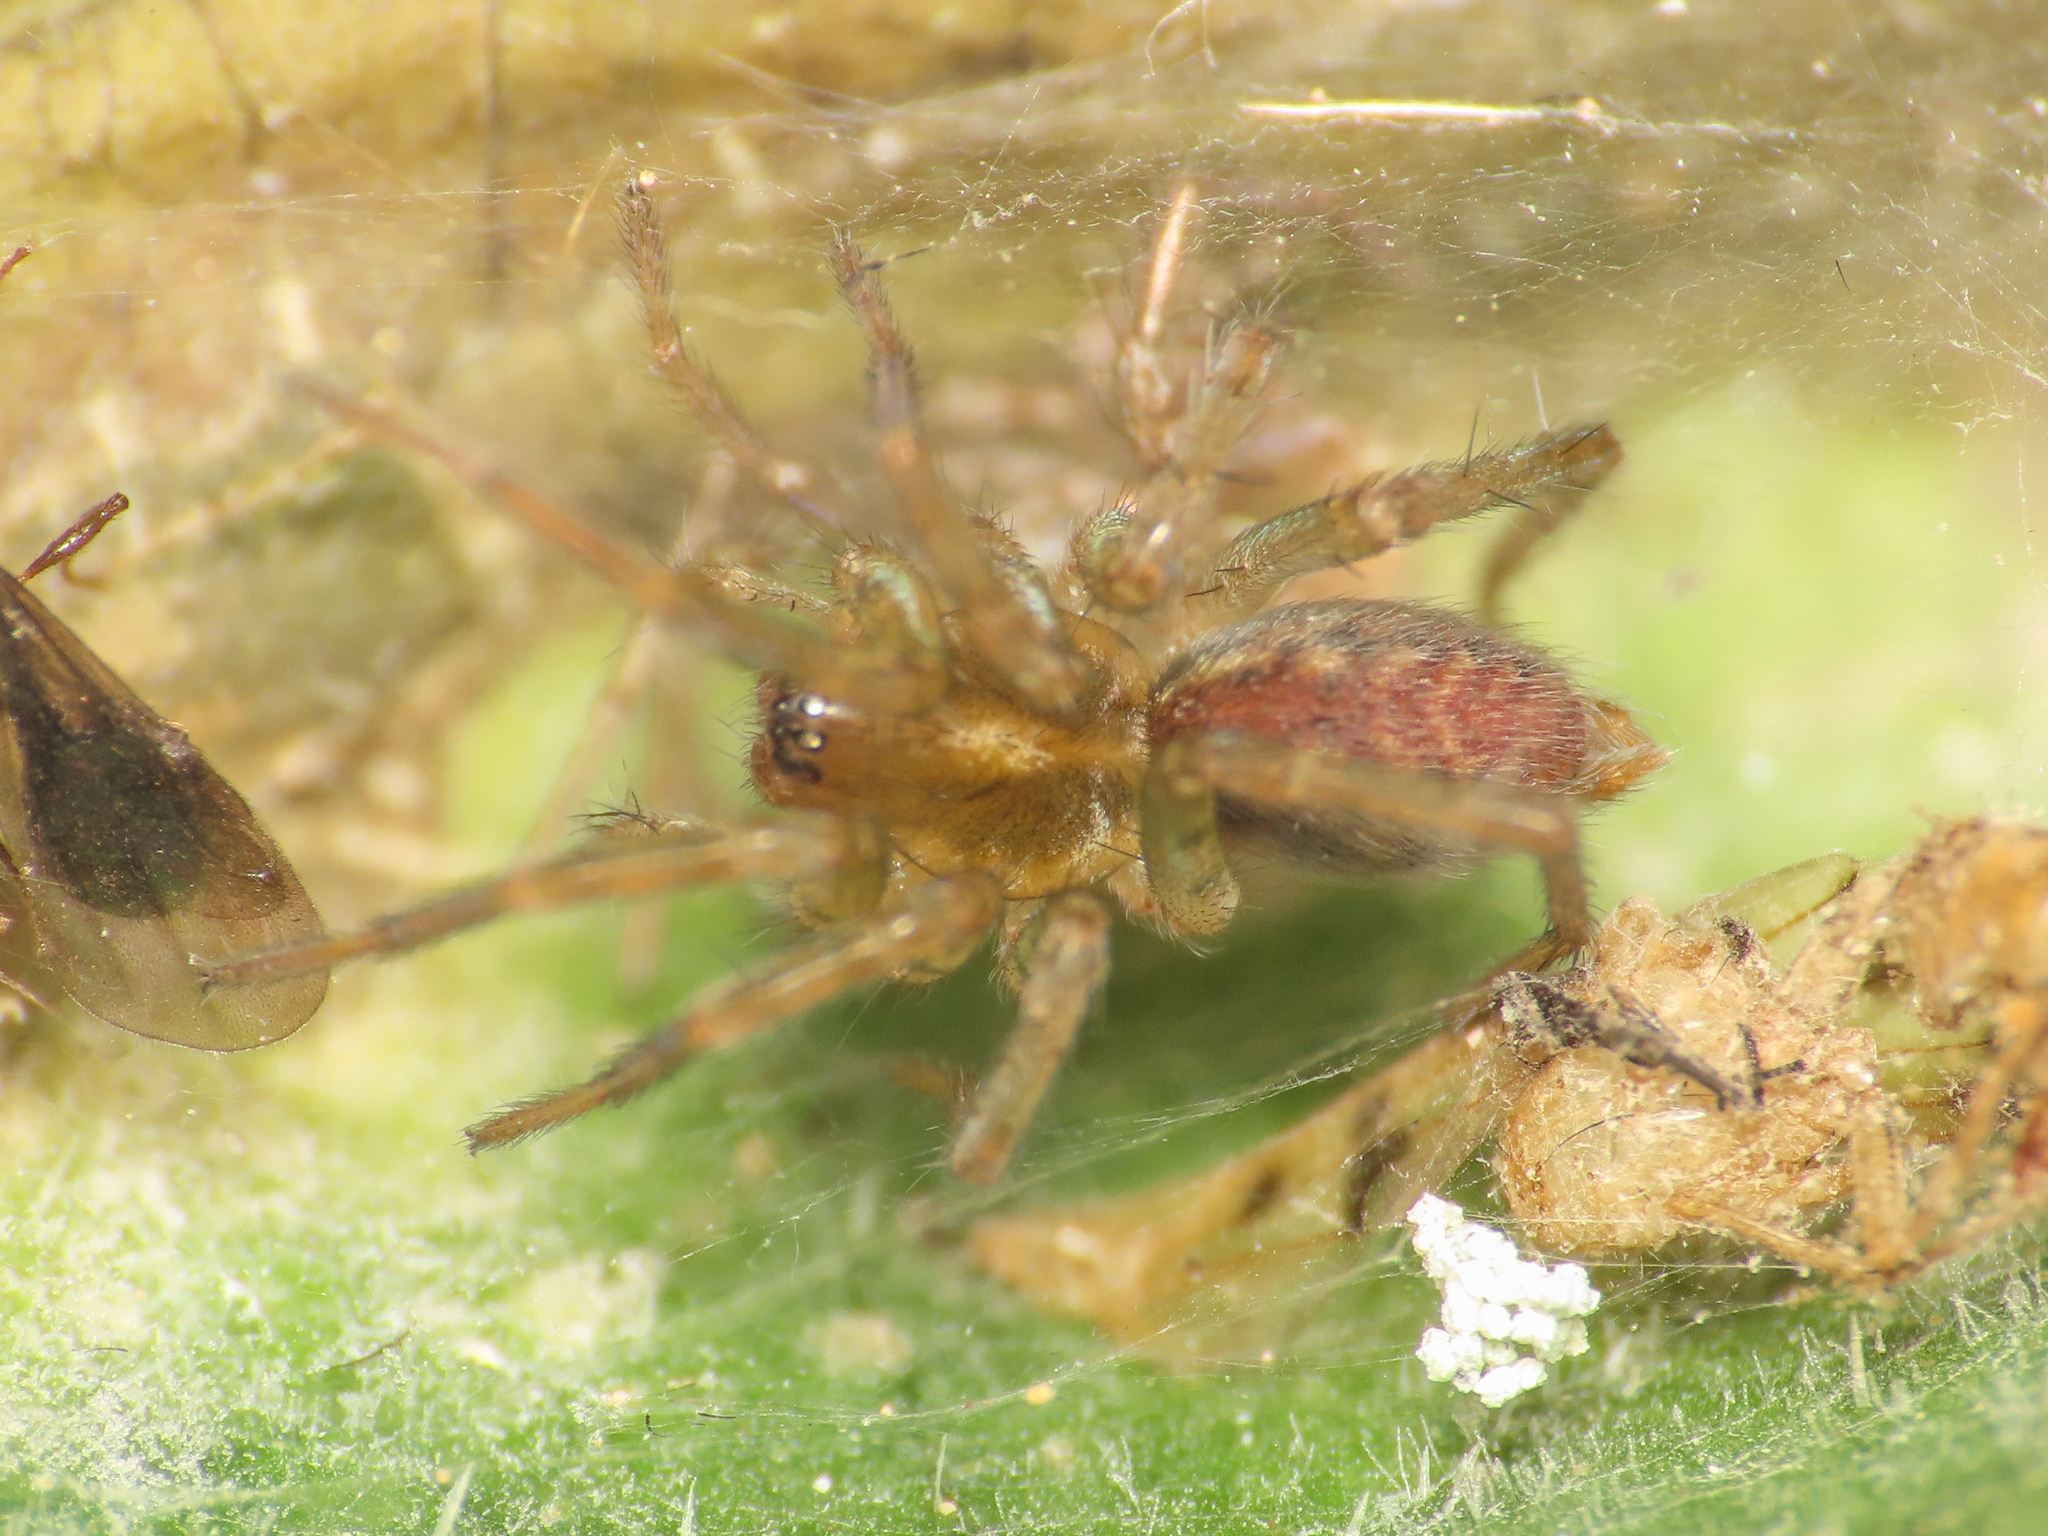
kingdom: Animalia
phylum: Arthropoda
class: Arachnida
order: Araneae
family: Agelenidae
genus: Aterigena
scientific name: Aterigena ligurica
